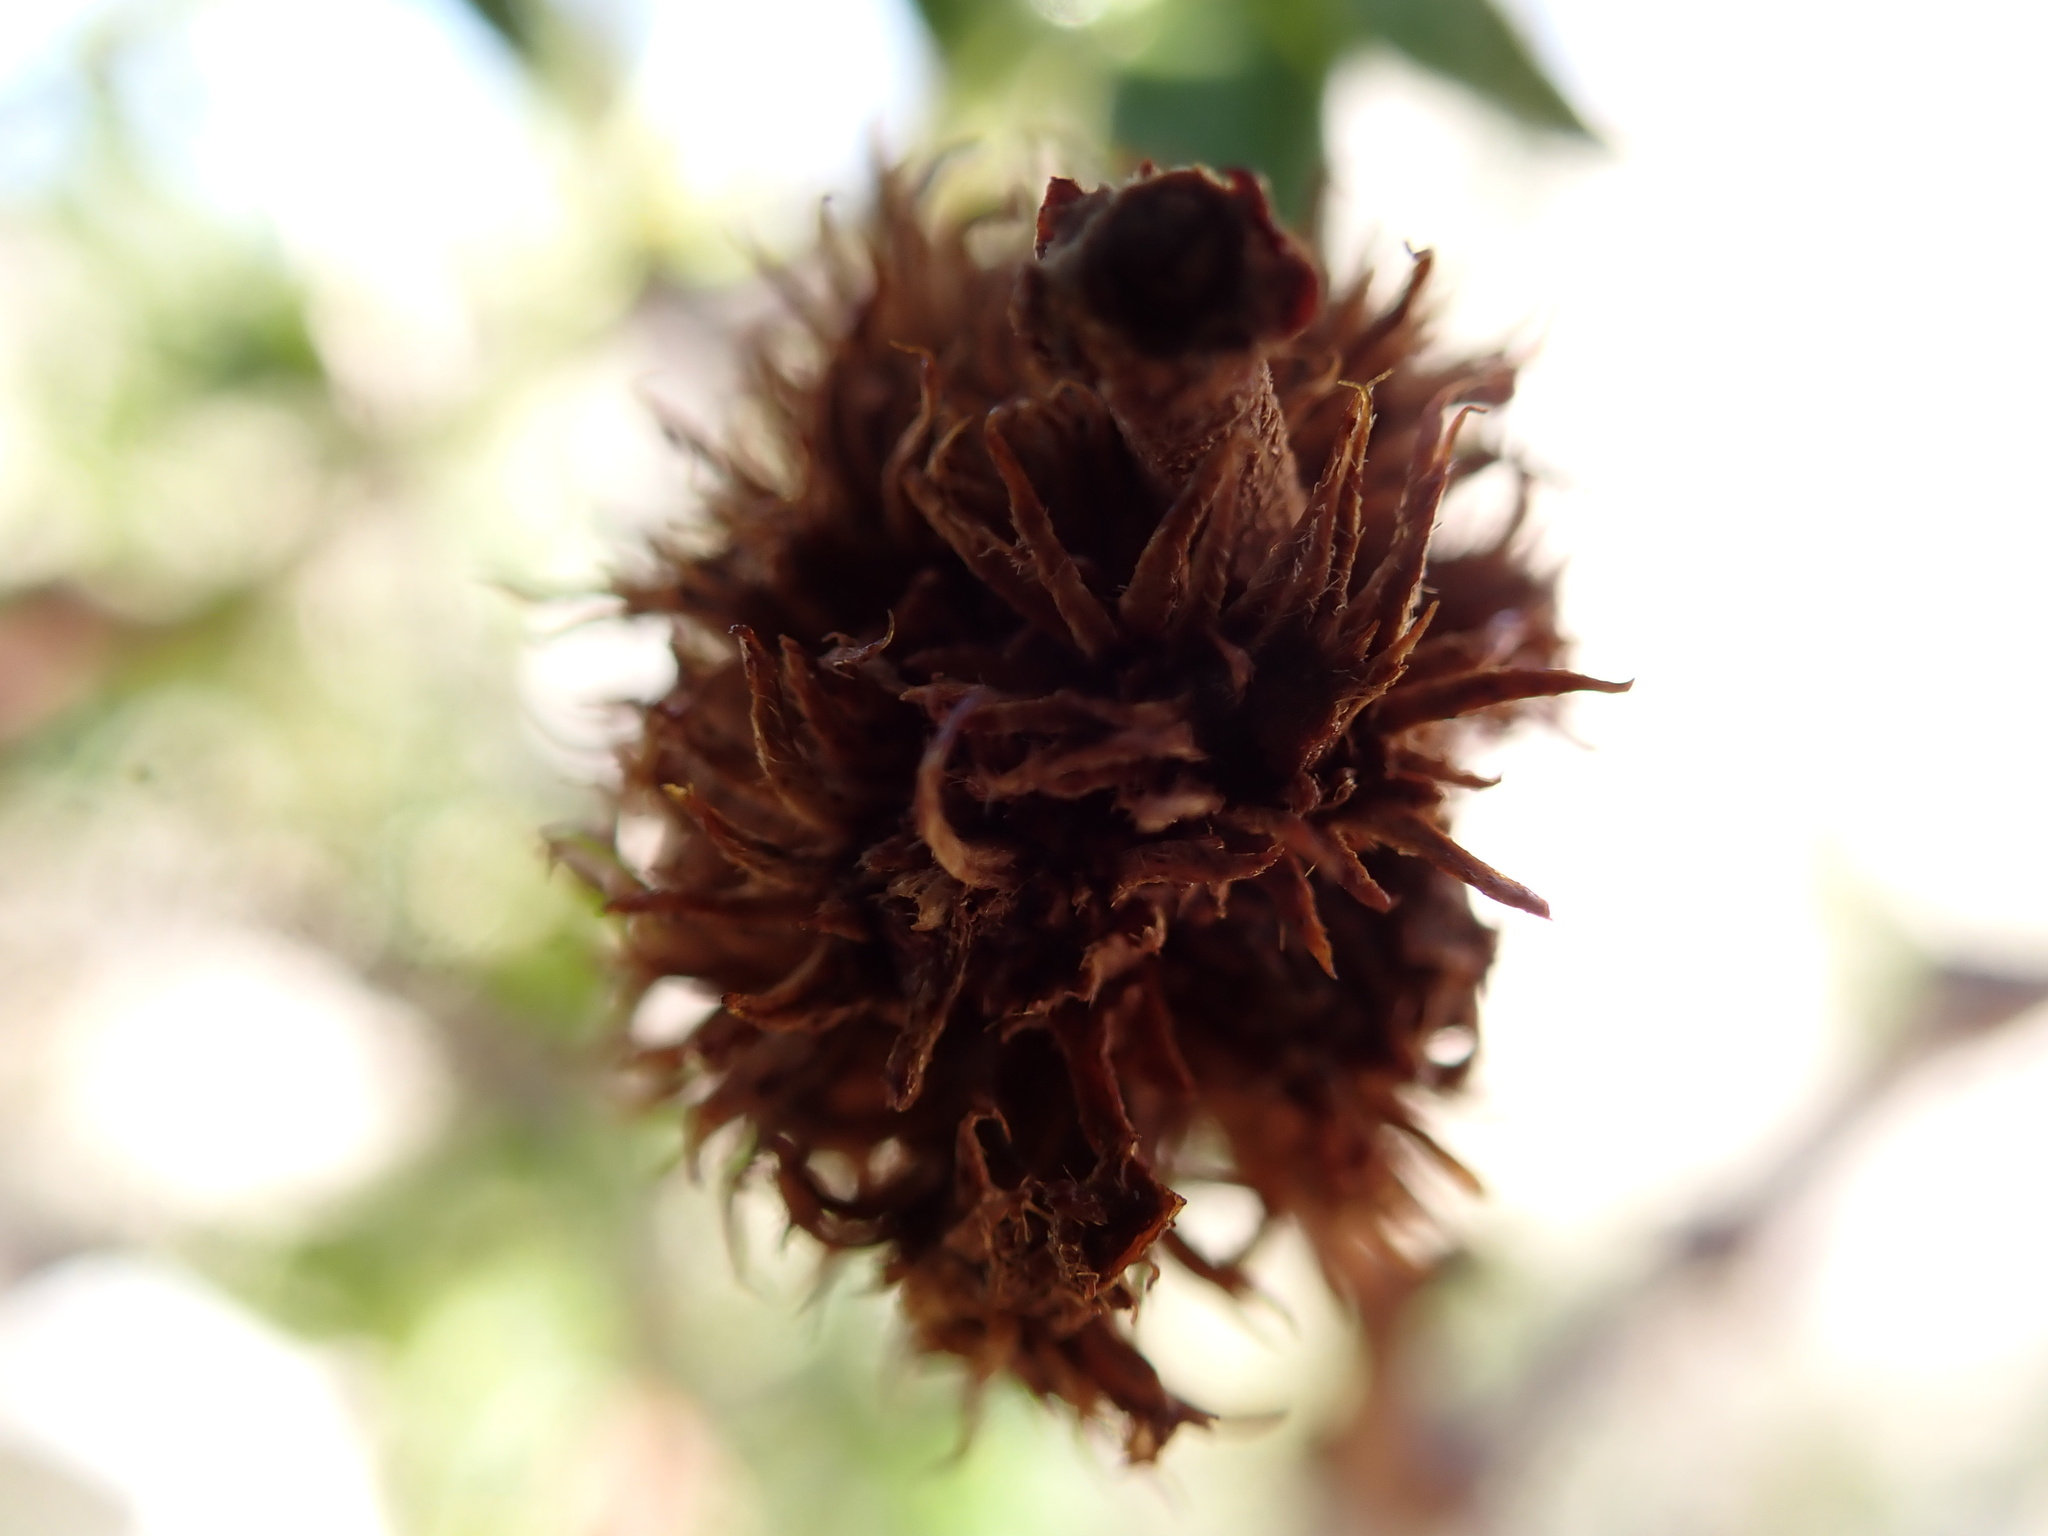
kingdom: Animalia
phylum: Arthropoda
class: Insecta
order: Diptera
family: Cecidomyiidae
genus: Asphondylia
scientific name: Asphondylia auripila
